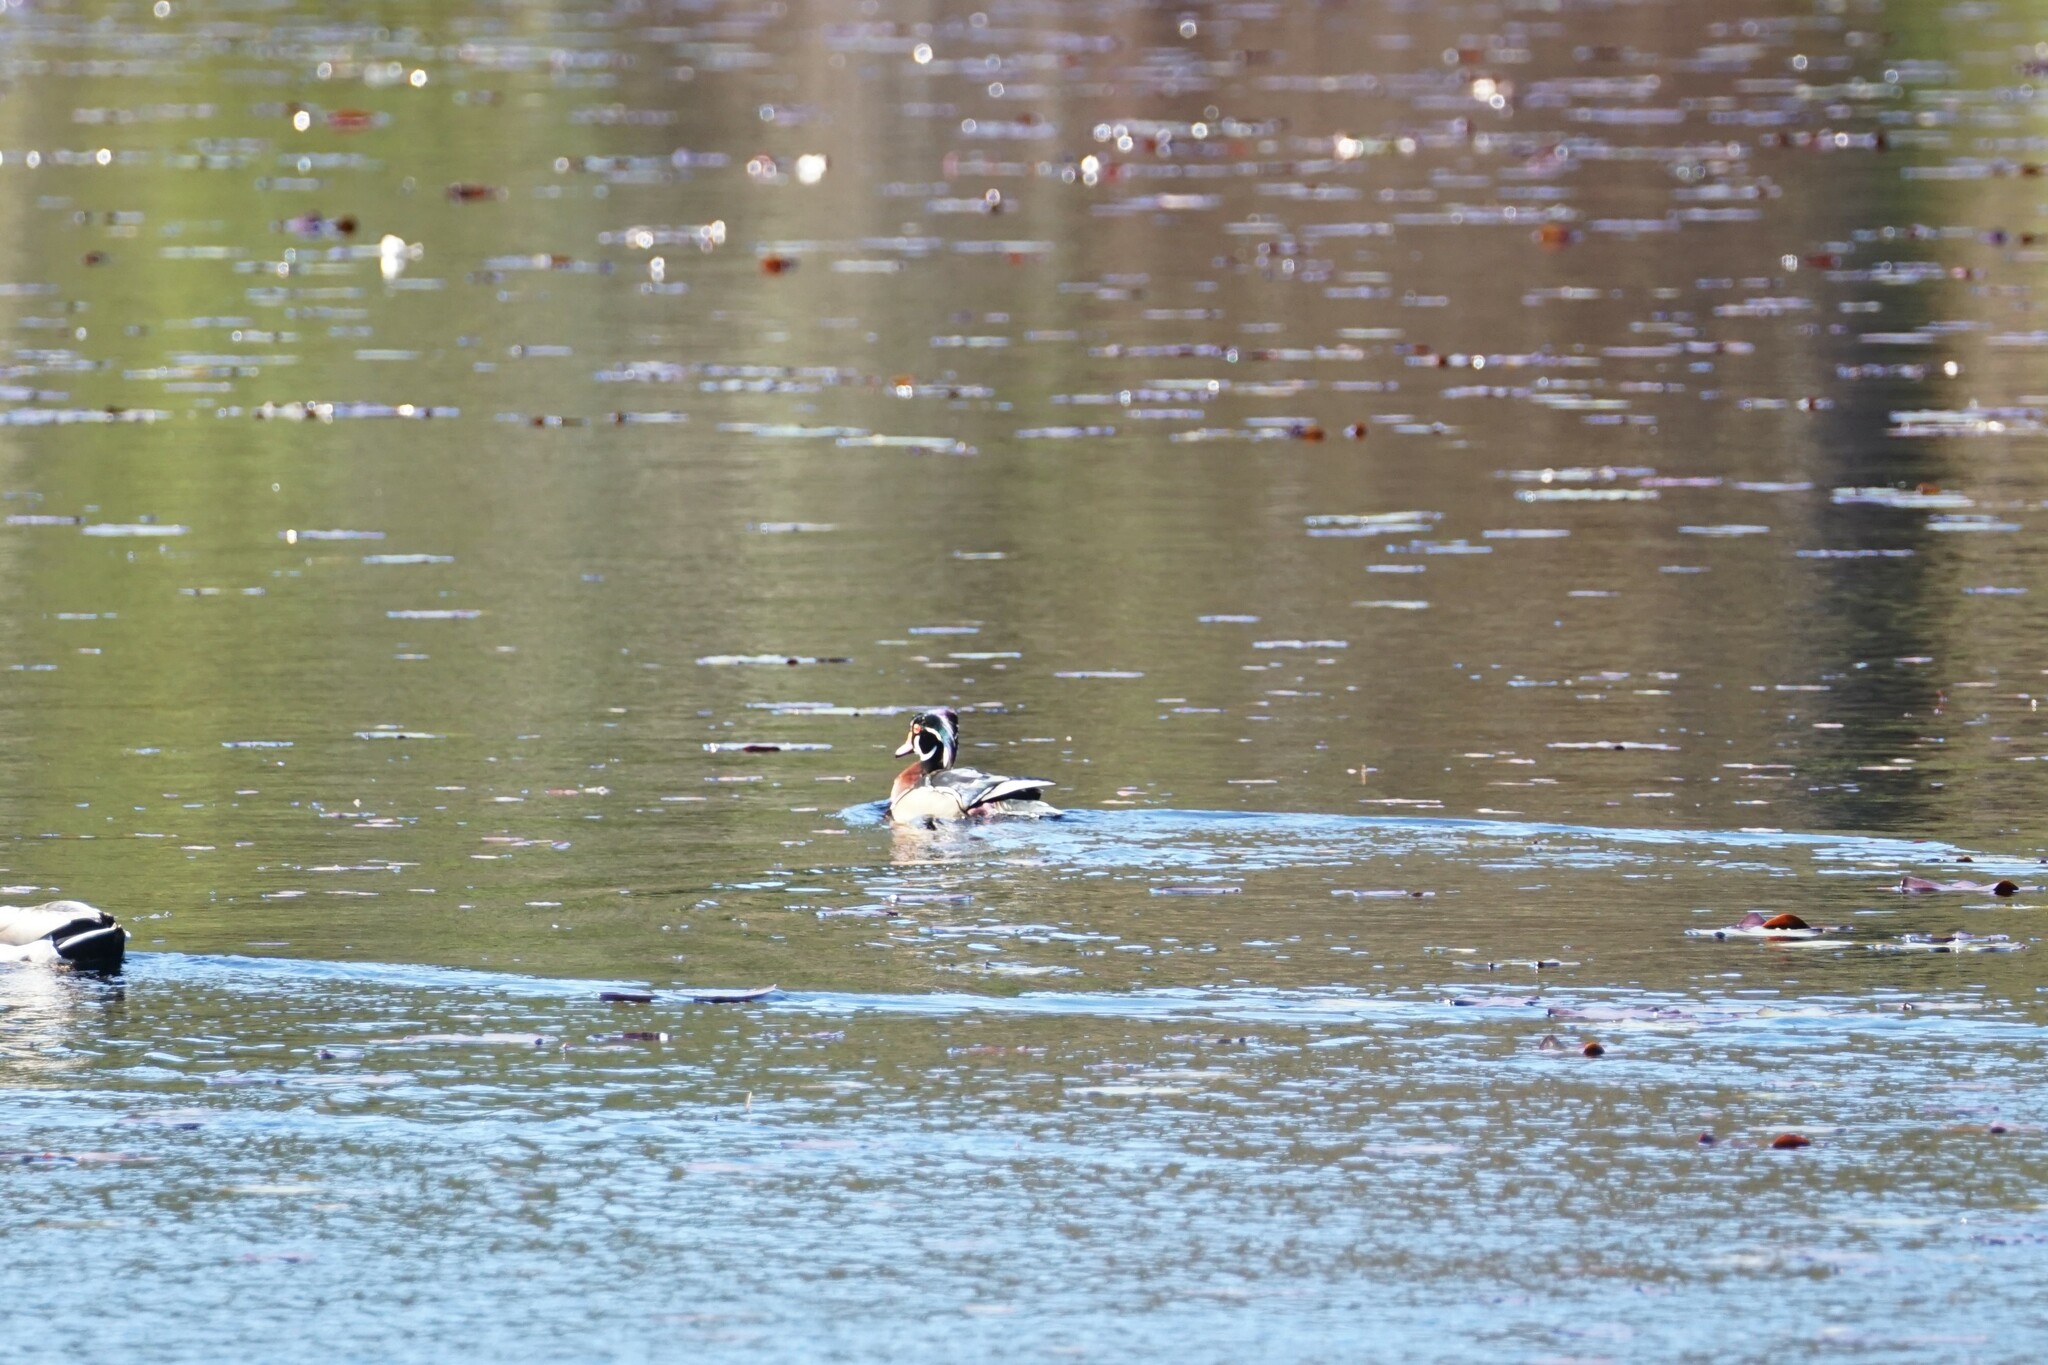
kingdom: Animalia
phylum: Chordata
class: Aves
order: Anseriformes
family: Anatidae
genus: Aix
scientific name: Aix sponsa
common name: Wood duck
